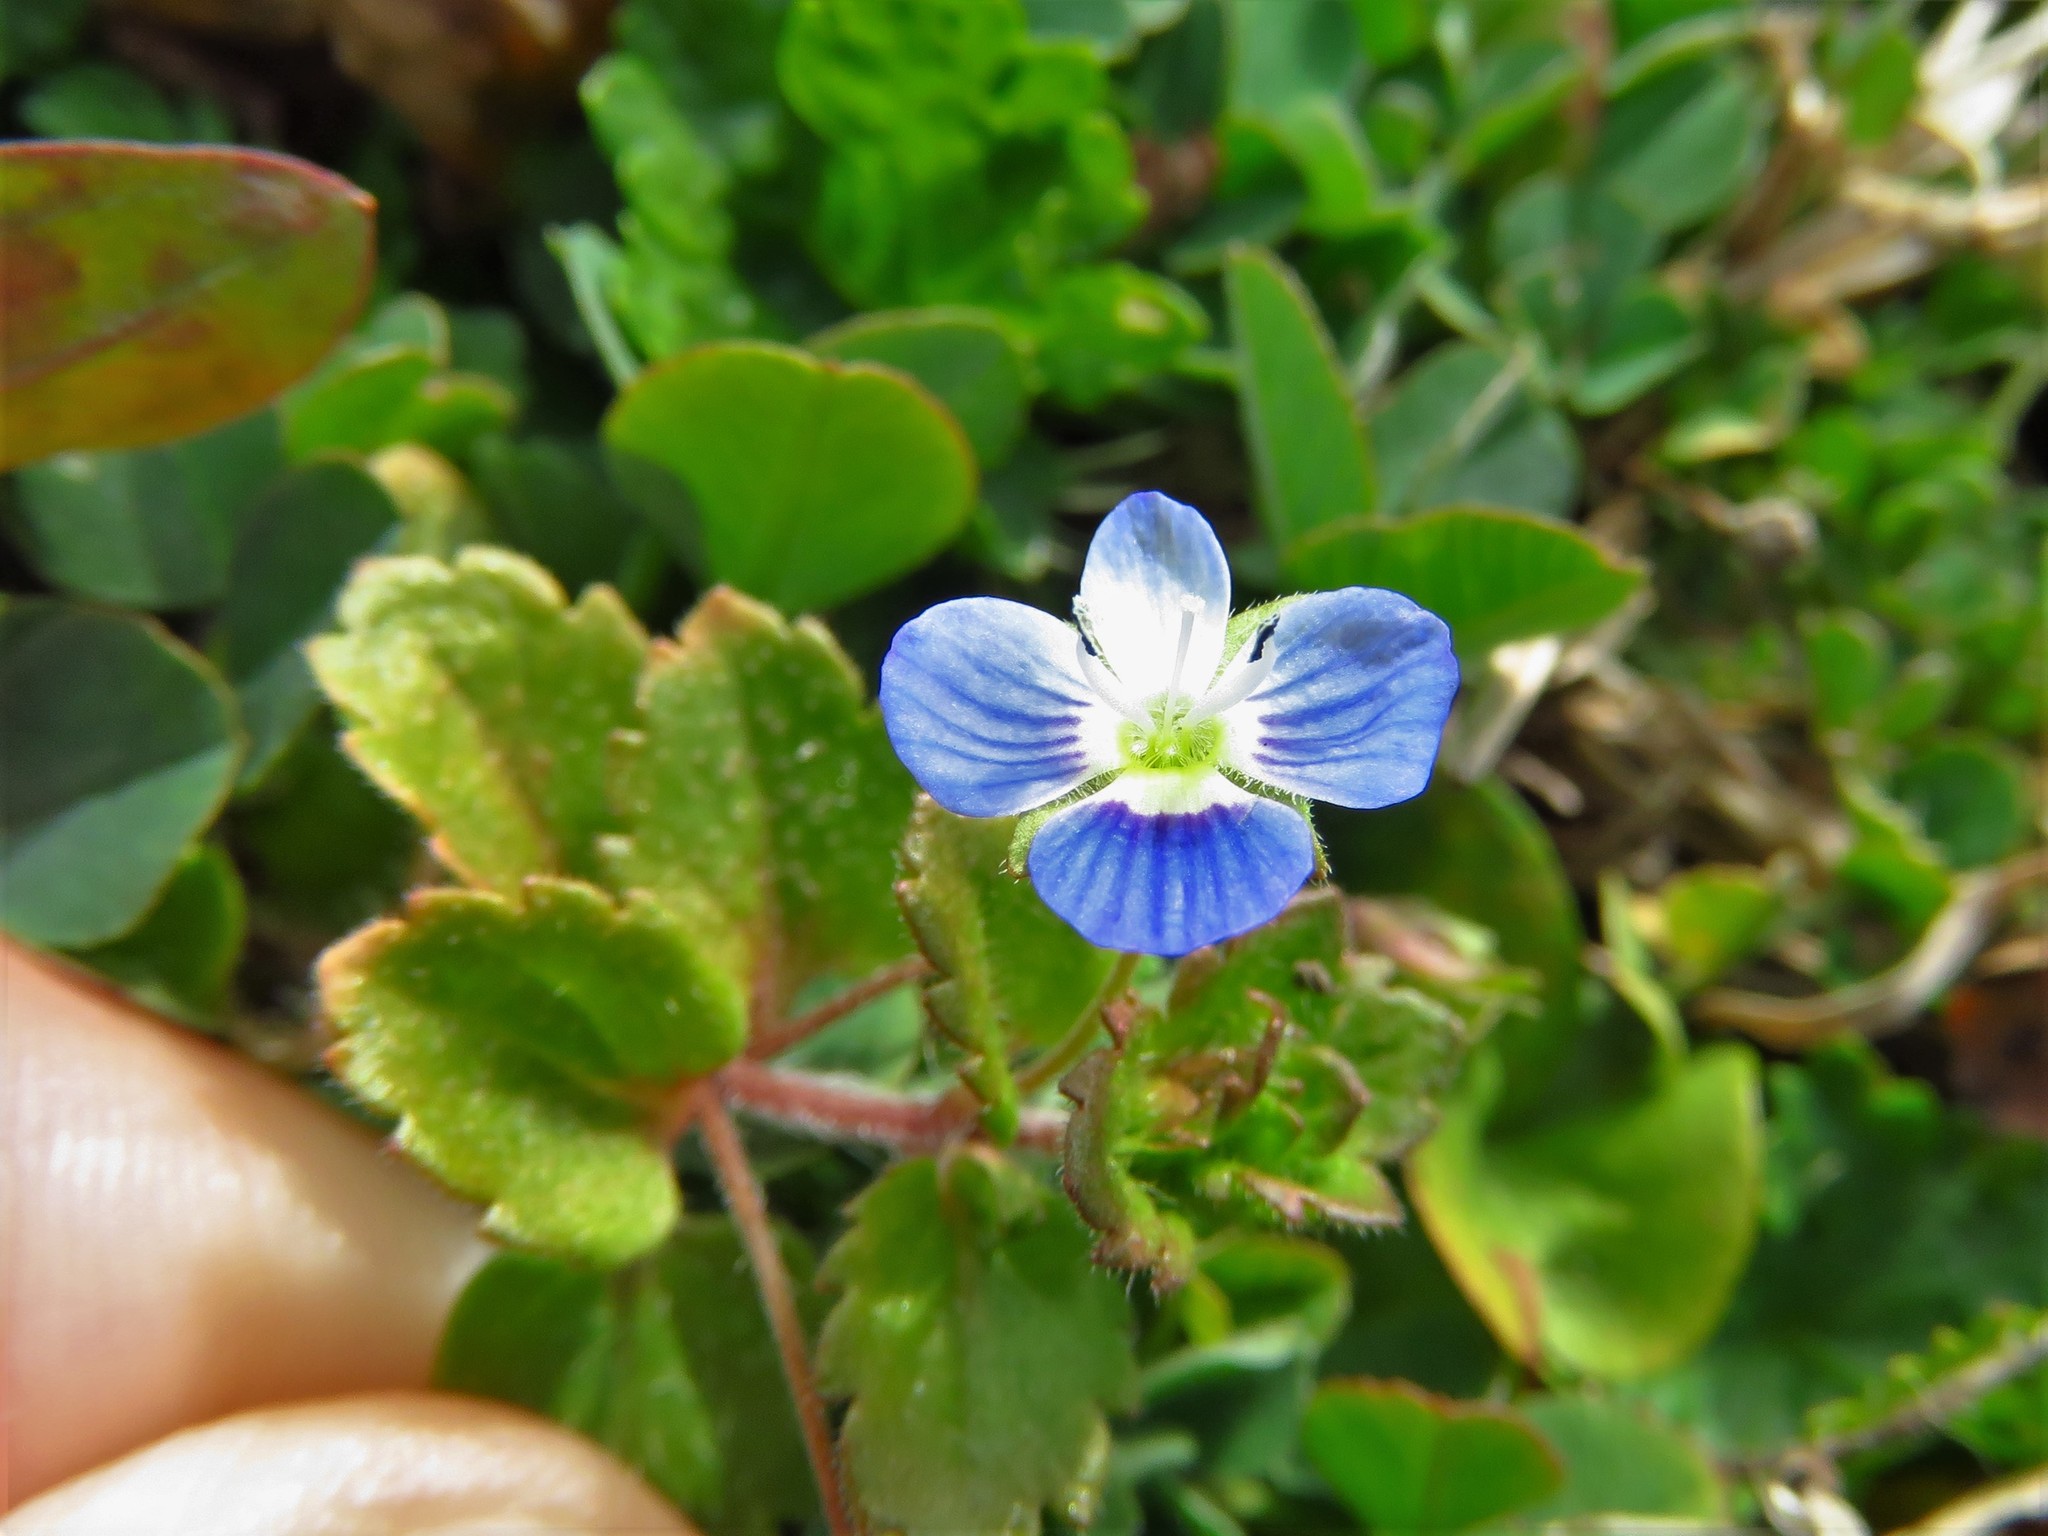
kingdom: Plantae
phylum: Tracheophyta
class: Magnoliopsida
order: Lamiales
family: Plantaginaceae
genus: Veronica
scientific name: Veronica persica
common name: Common field-speedwell
